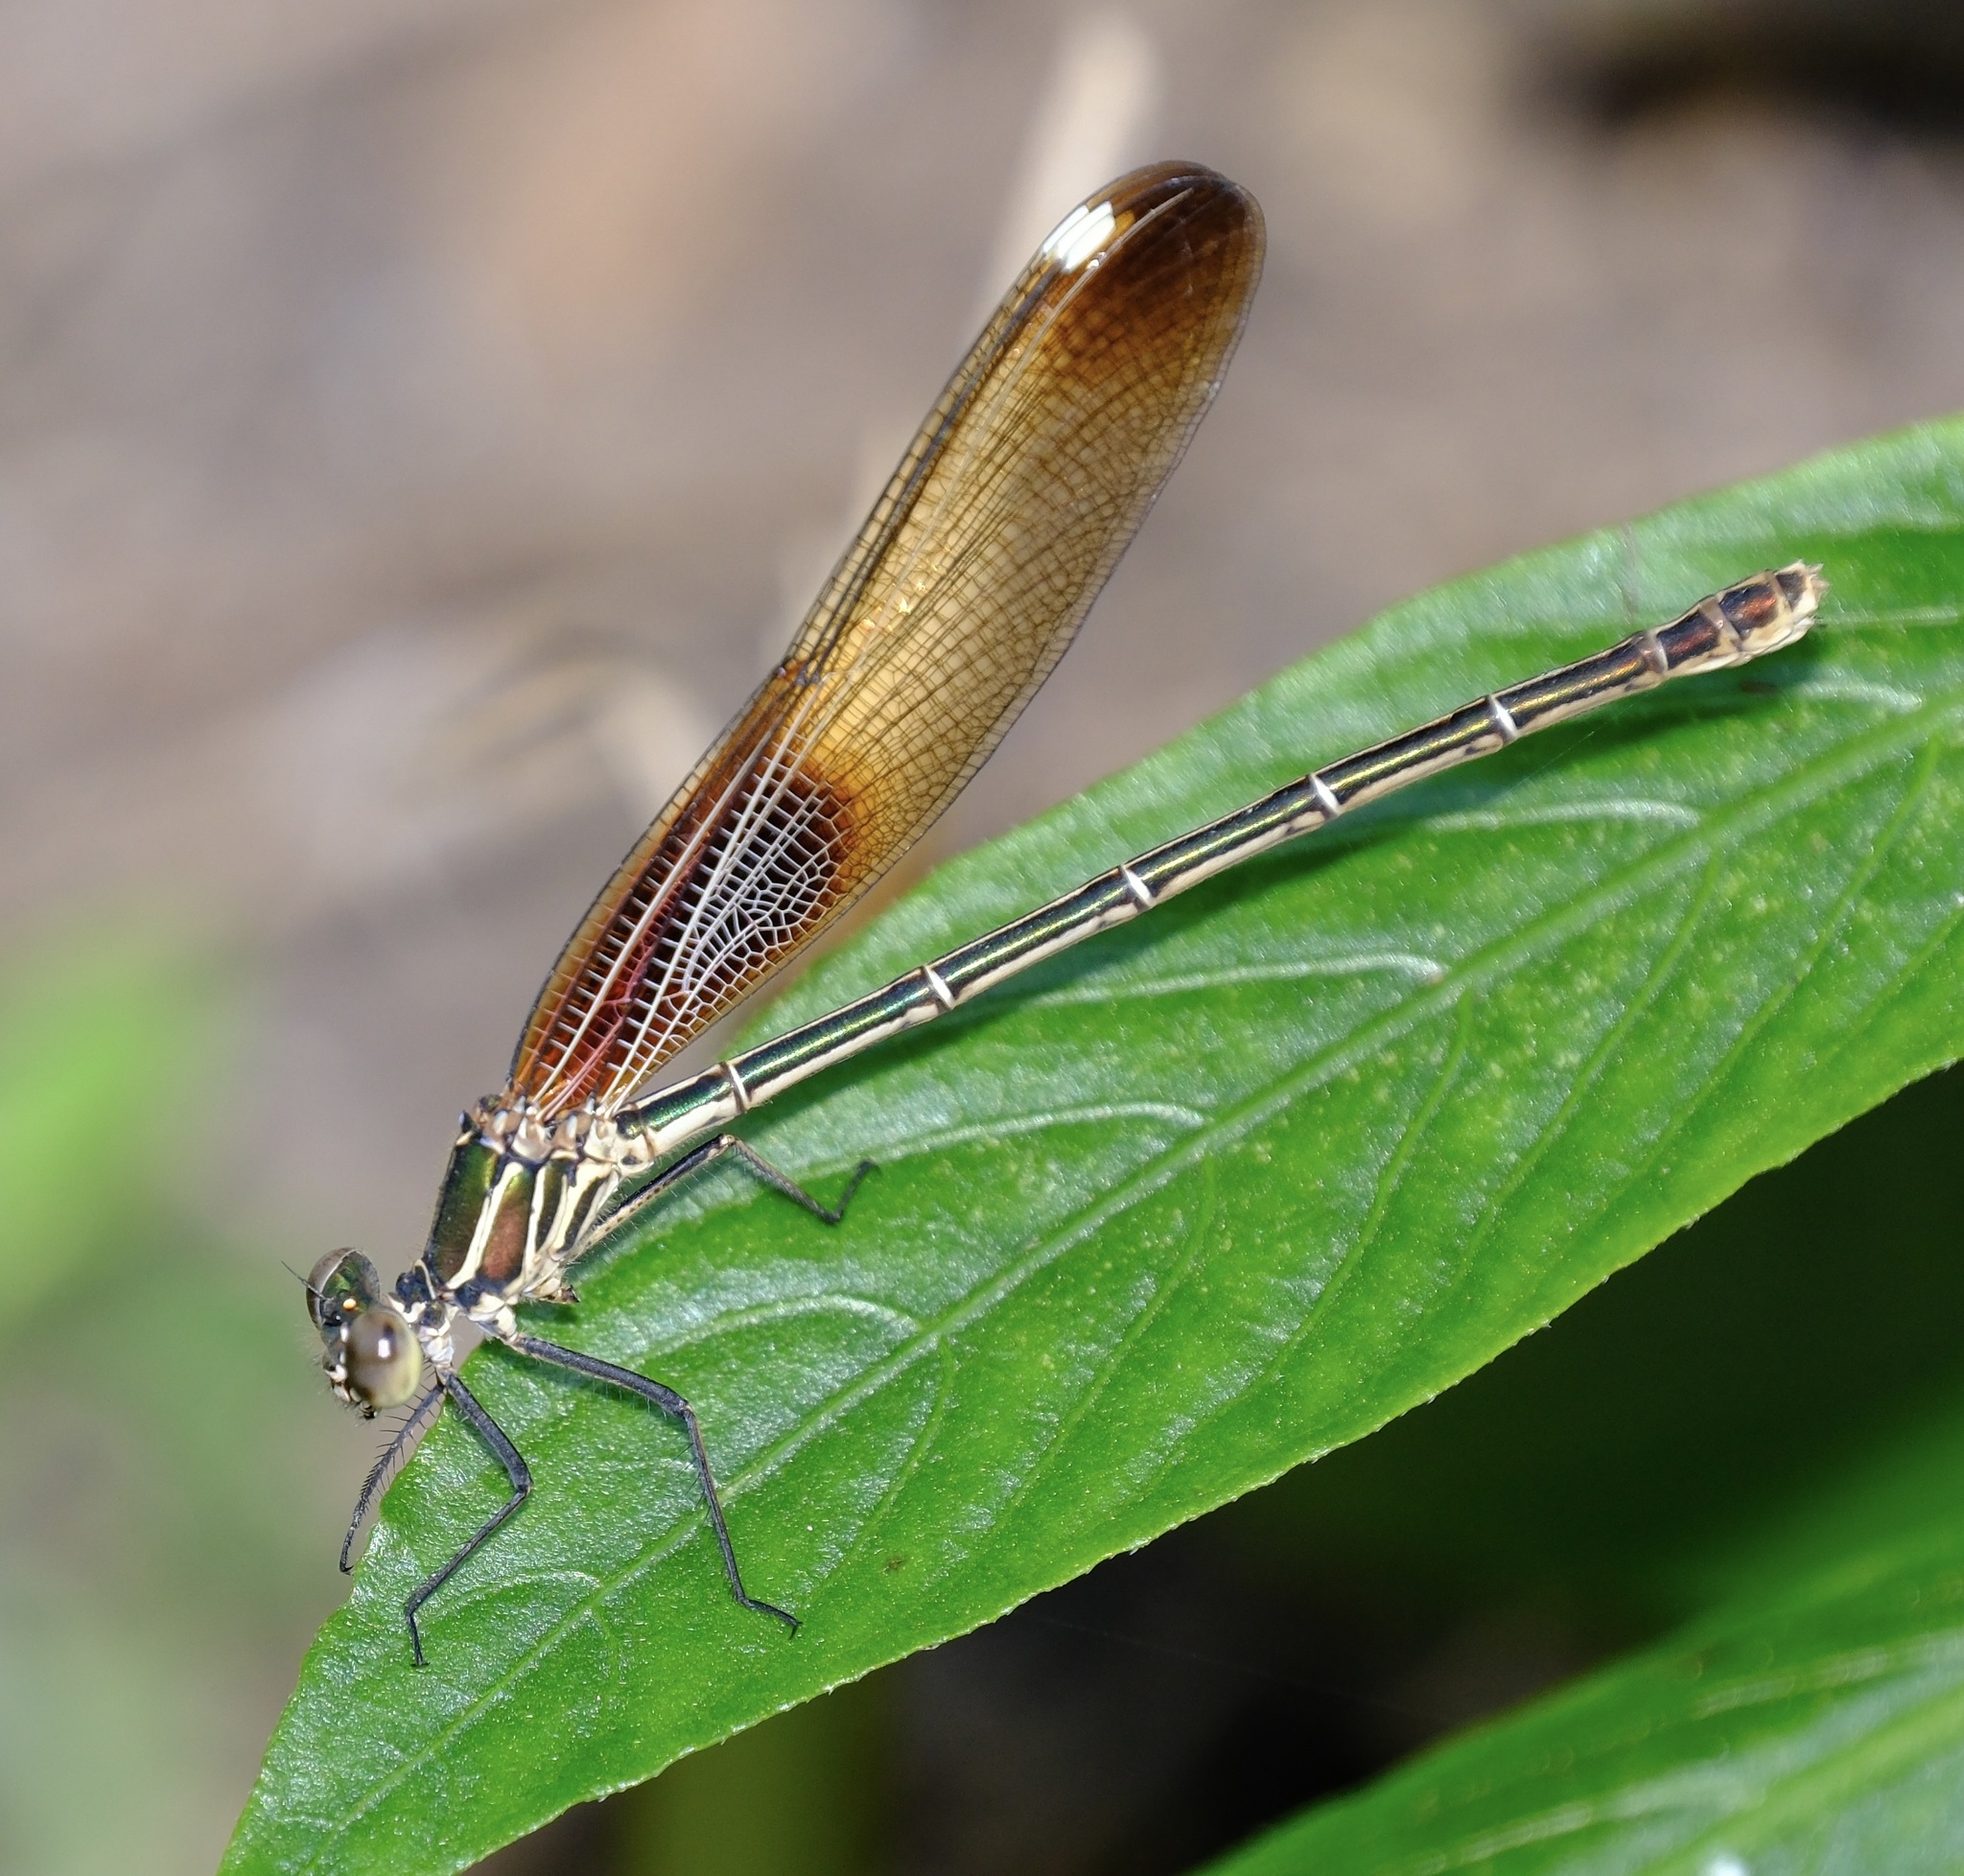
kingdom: Animalia
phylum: Arthropoda
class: Insecta
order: Odonata
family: Calopterygidae
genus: Hetaerina
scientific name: Hetaerina americana
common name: American rubyspot
